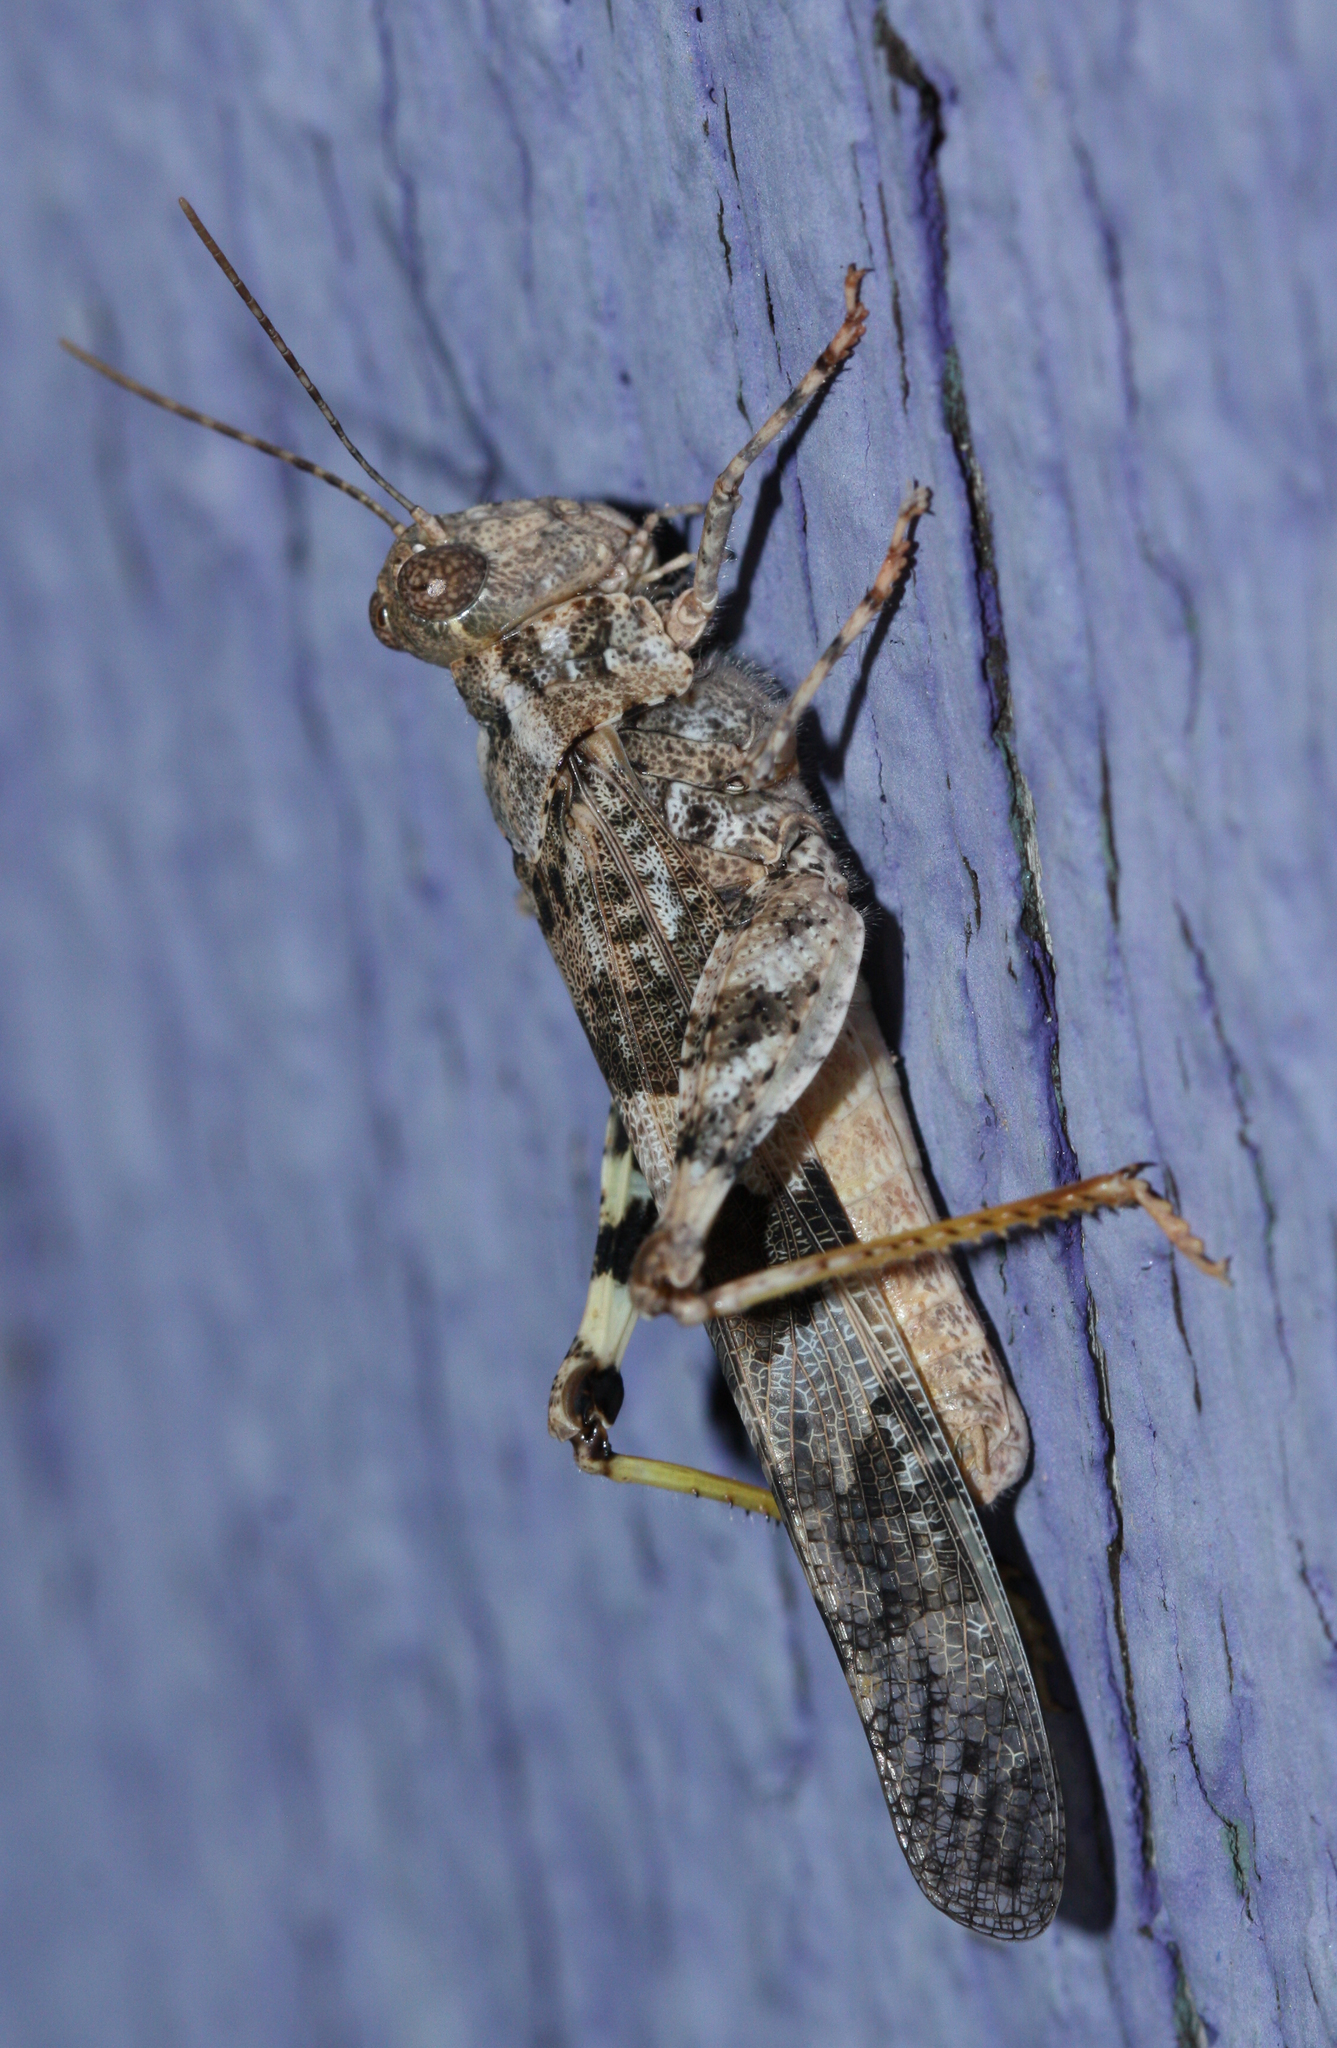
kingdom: Animalia
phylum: Arthropoda
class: Insecta
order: Orthoptera
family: Acrididae
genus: Trimerotropis
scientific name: Trimerotropis pallidipennis
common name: Pallid-winged grasshopper
